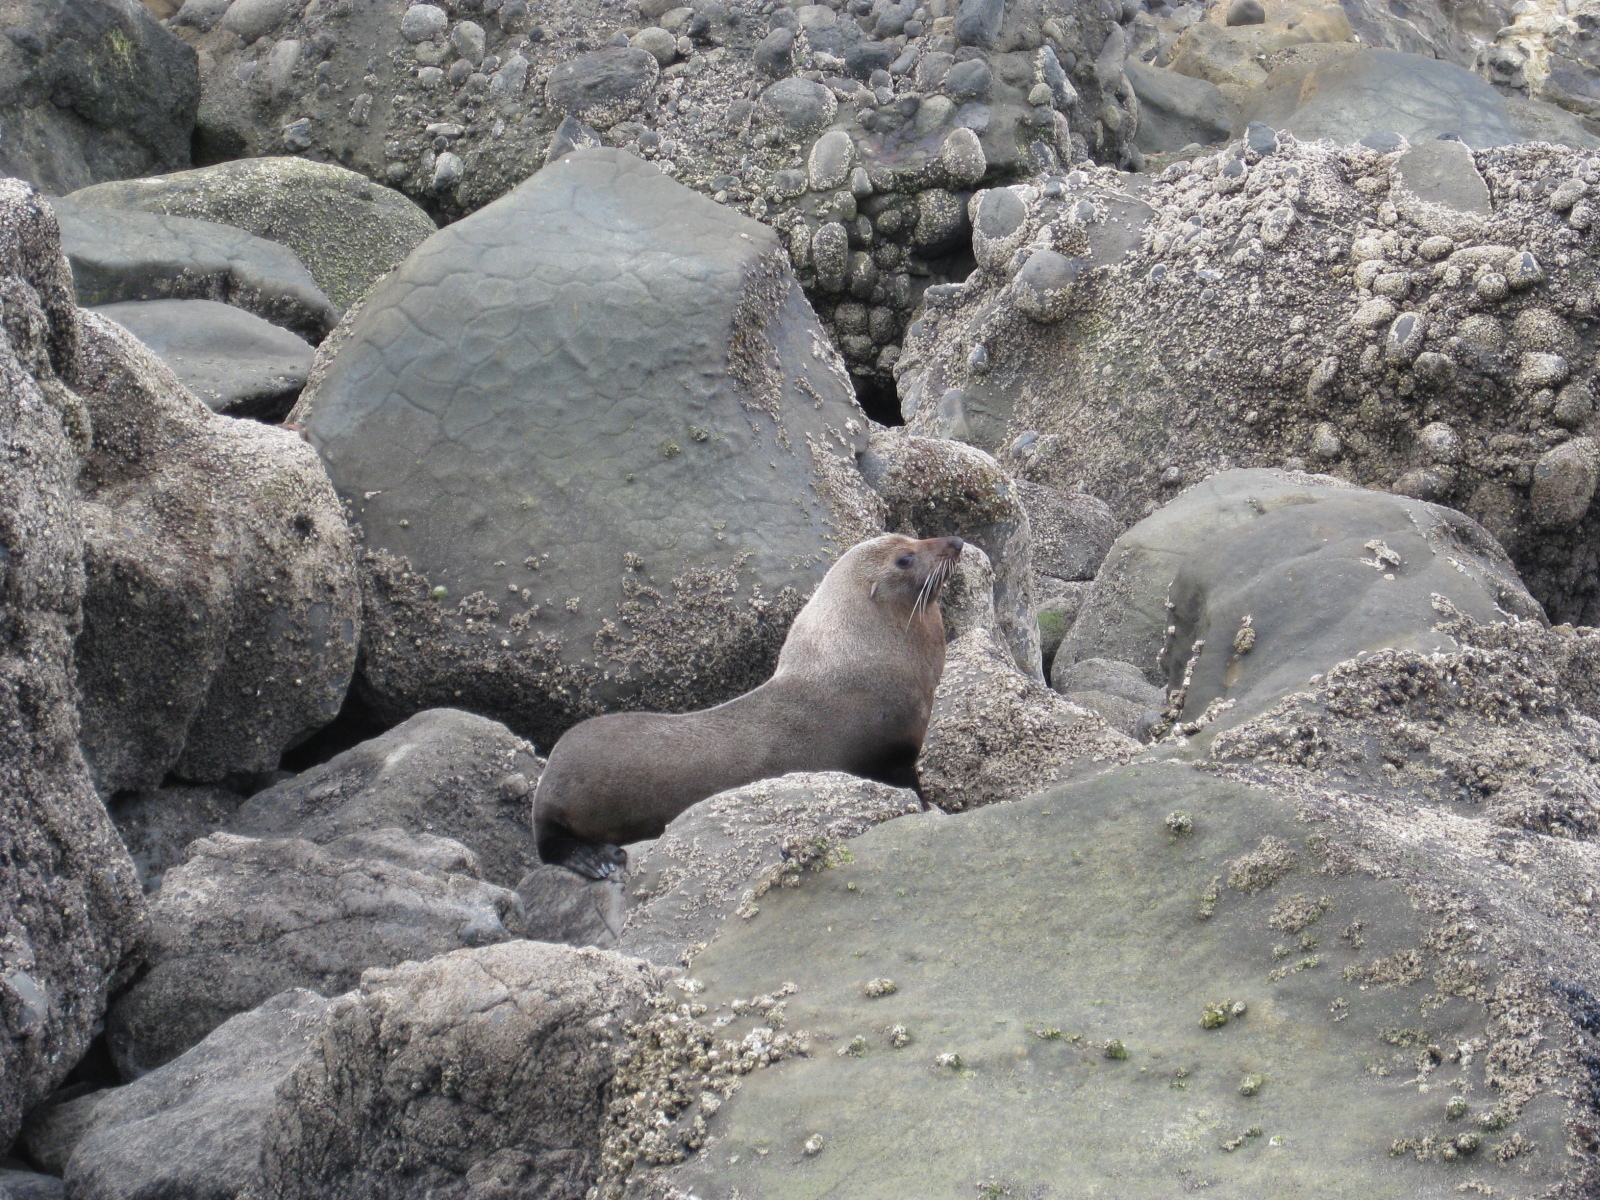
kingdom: Animalia
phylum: Chordata
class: Mammalia
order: Carnivora
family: Otariidae
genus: Arctocephalus
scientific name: Arctocephalus forsteri
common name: New zealand fur seal
